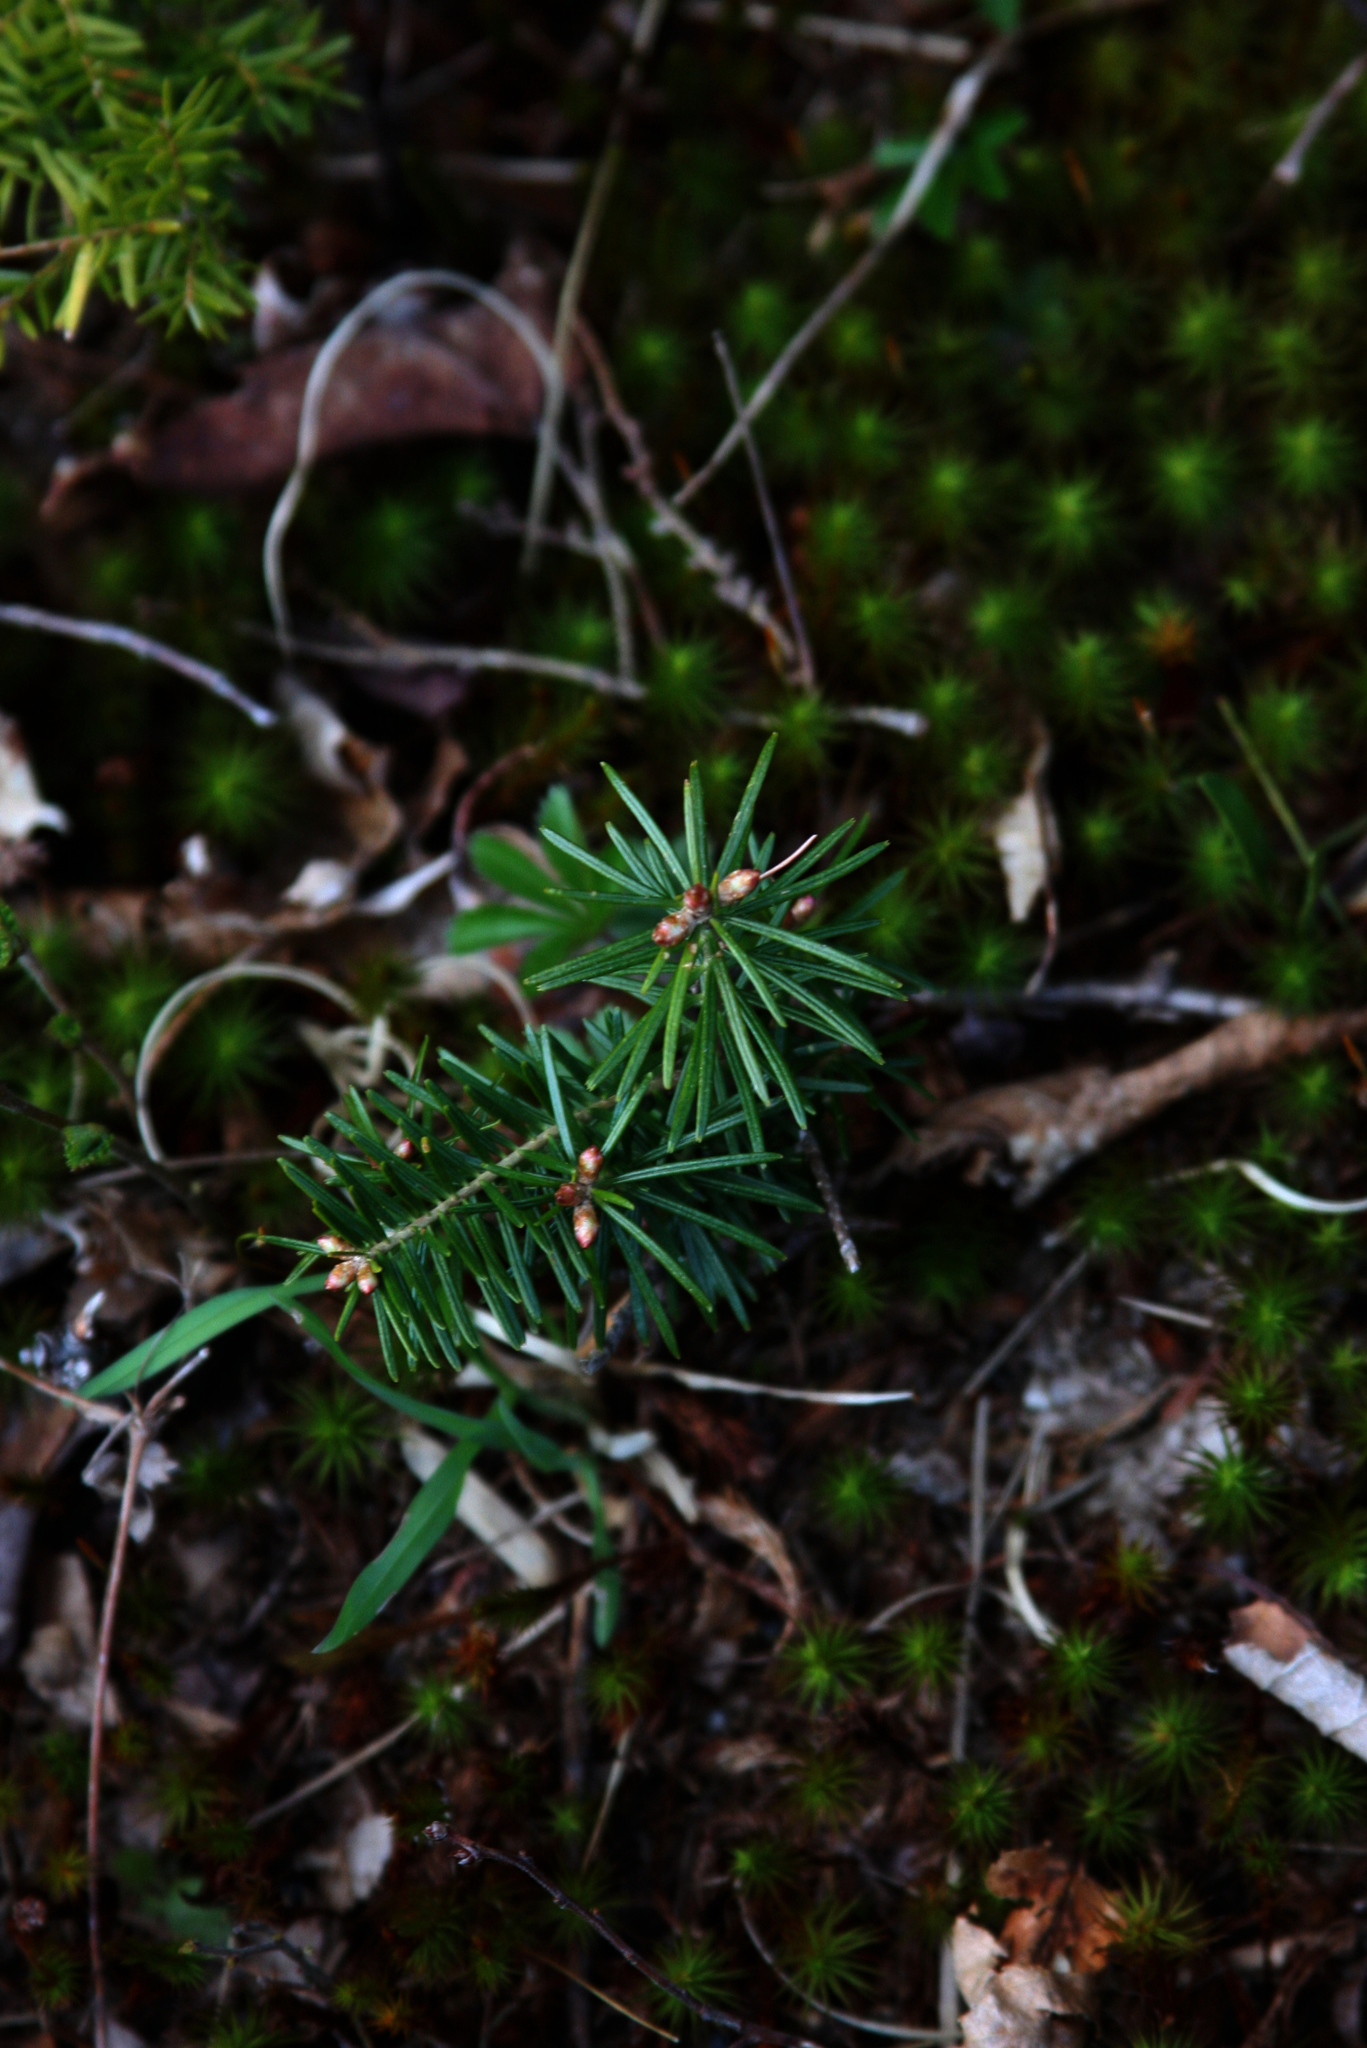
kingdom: Plantae
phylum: Tracheophyta
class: Pinopsida
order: Pinales
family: Pinaceae
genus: Tsuga
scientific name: Tsuga canadensis
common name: Eastern hemlock
